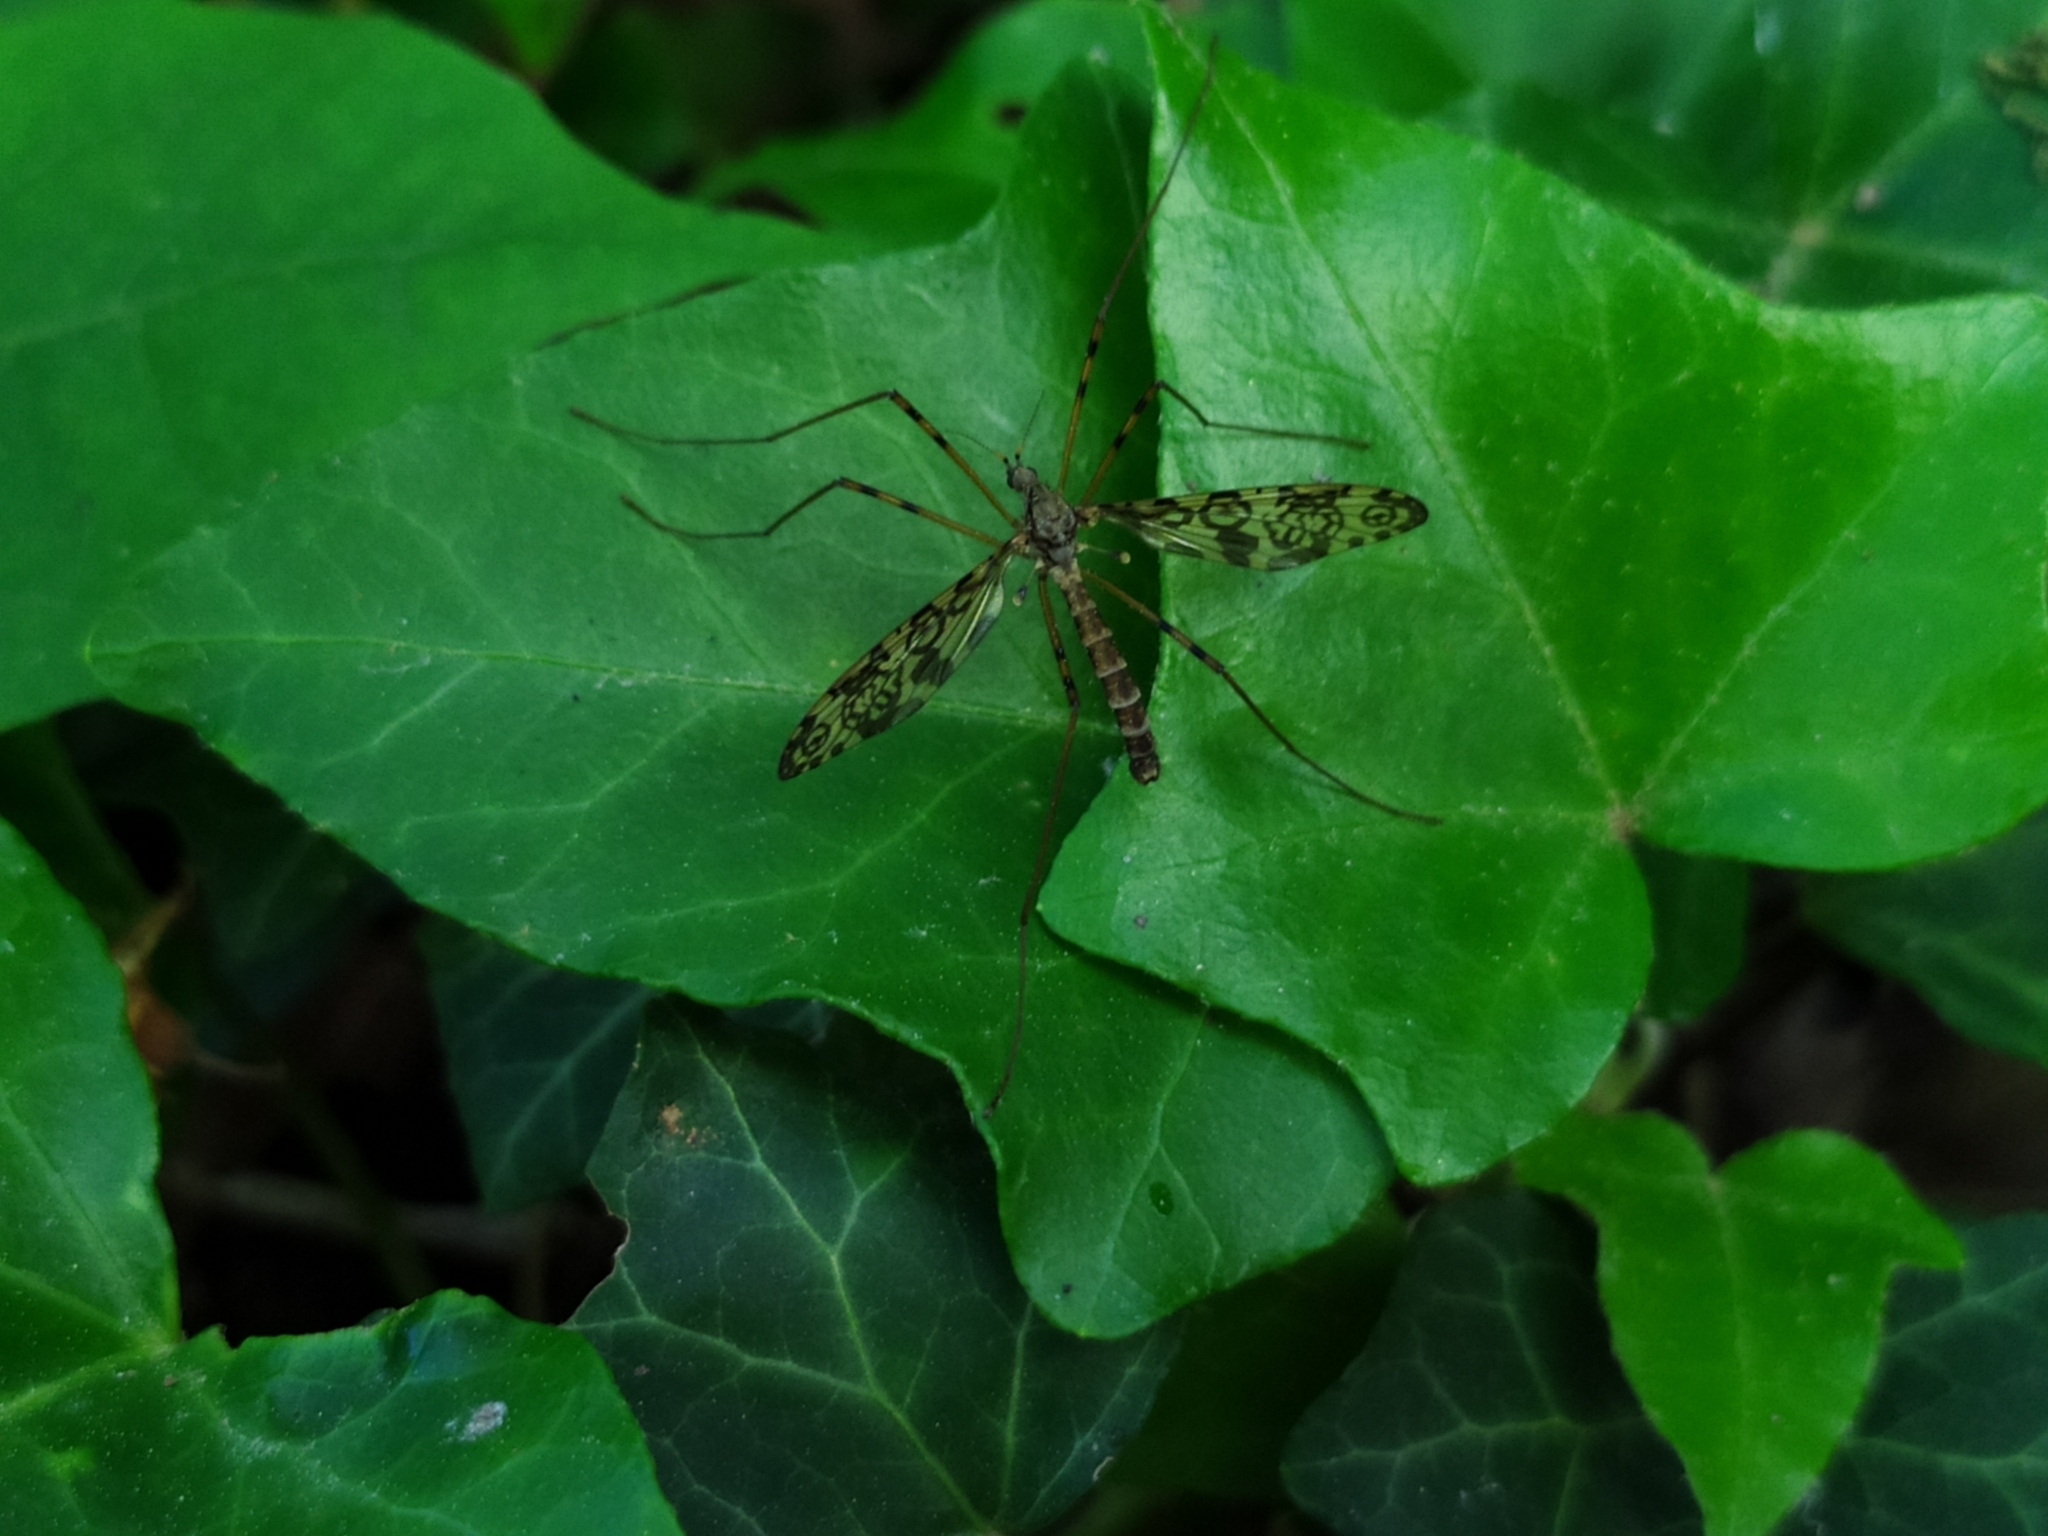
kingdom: Animalia
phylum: Arthropoda
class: Insecta
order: Diptera
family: Limoniidae
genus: Epiphragma
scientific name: Epiphragma ocellare
